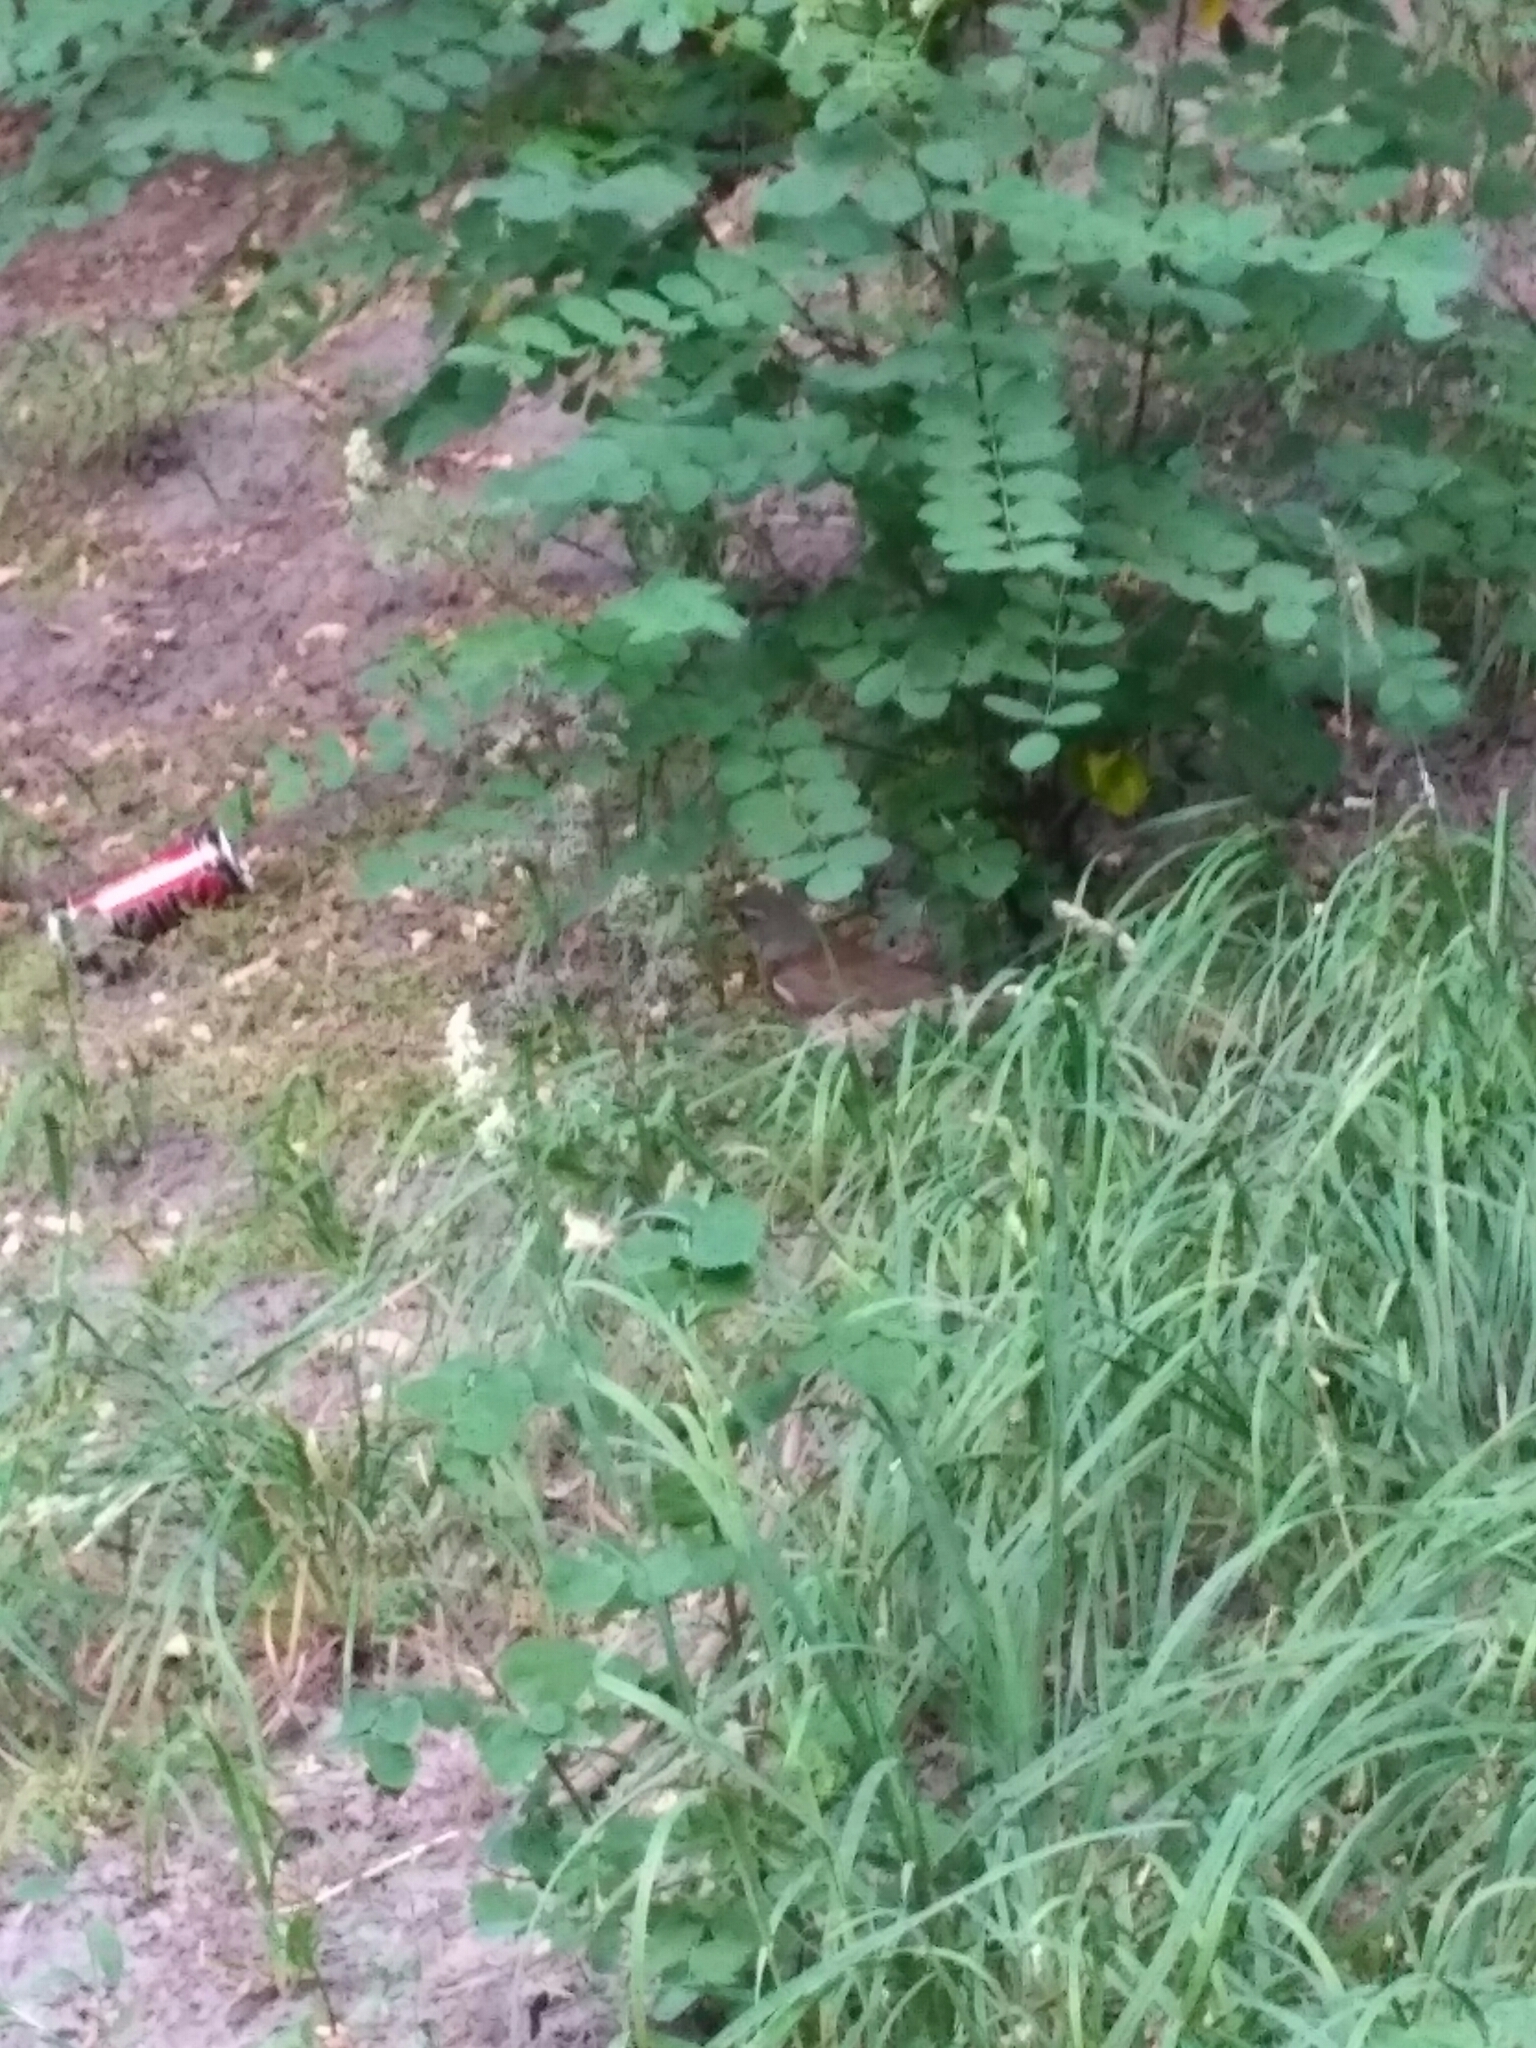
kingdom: Animalia
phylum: Chordata
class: Aves
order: Passeriformes
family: Turdidae
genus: Turdus
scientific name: Turdus pilaris
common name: Fieldfare
